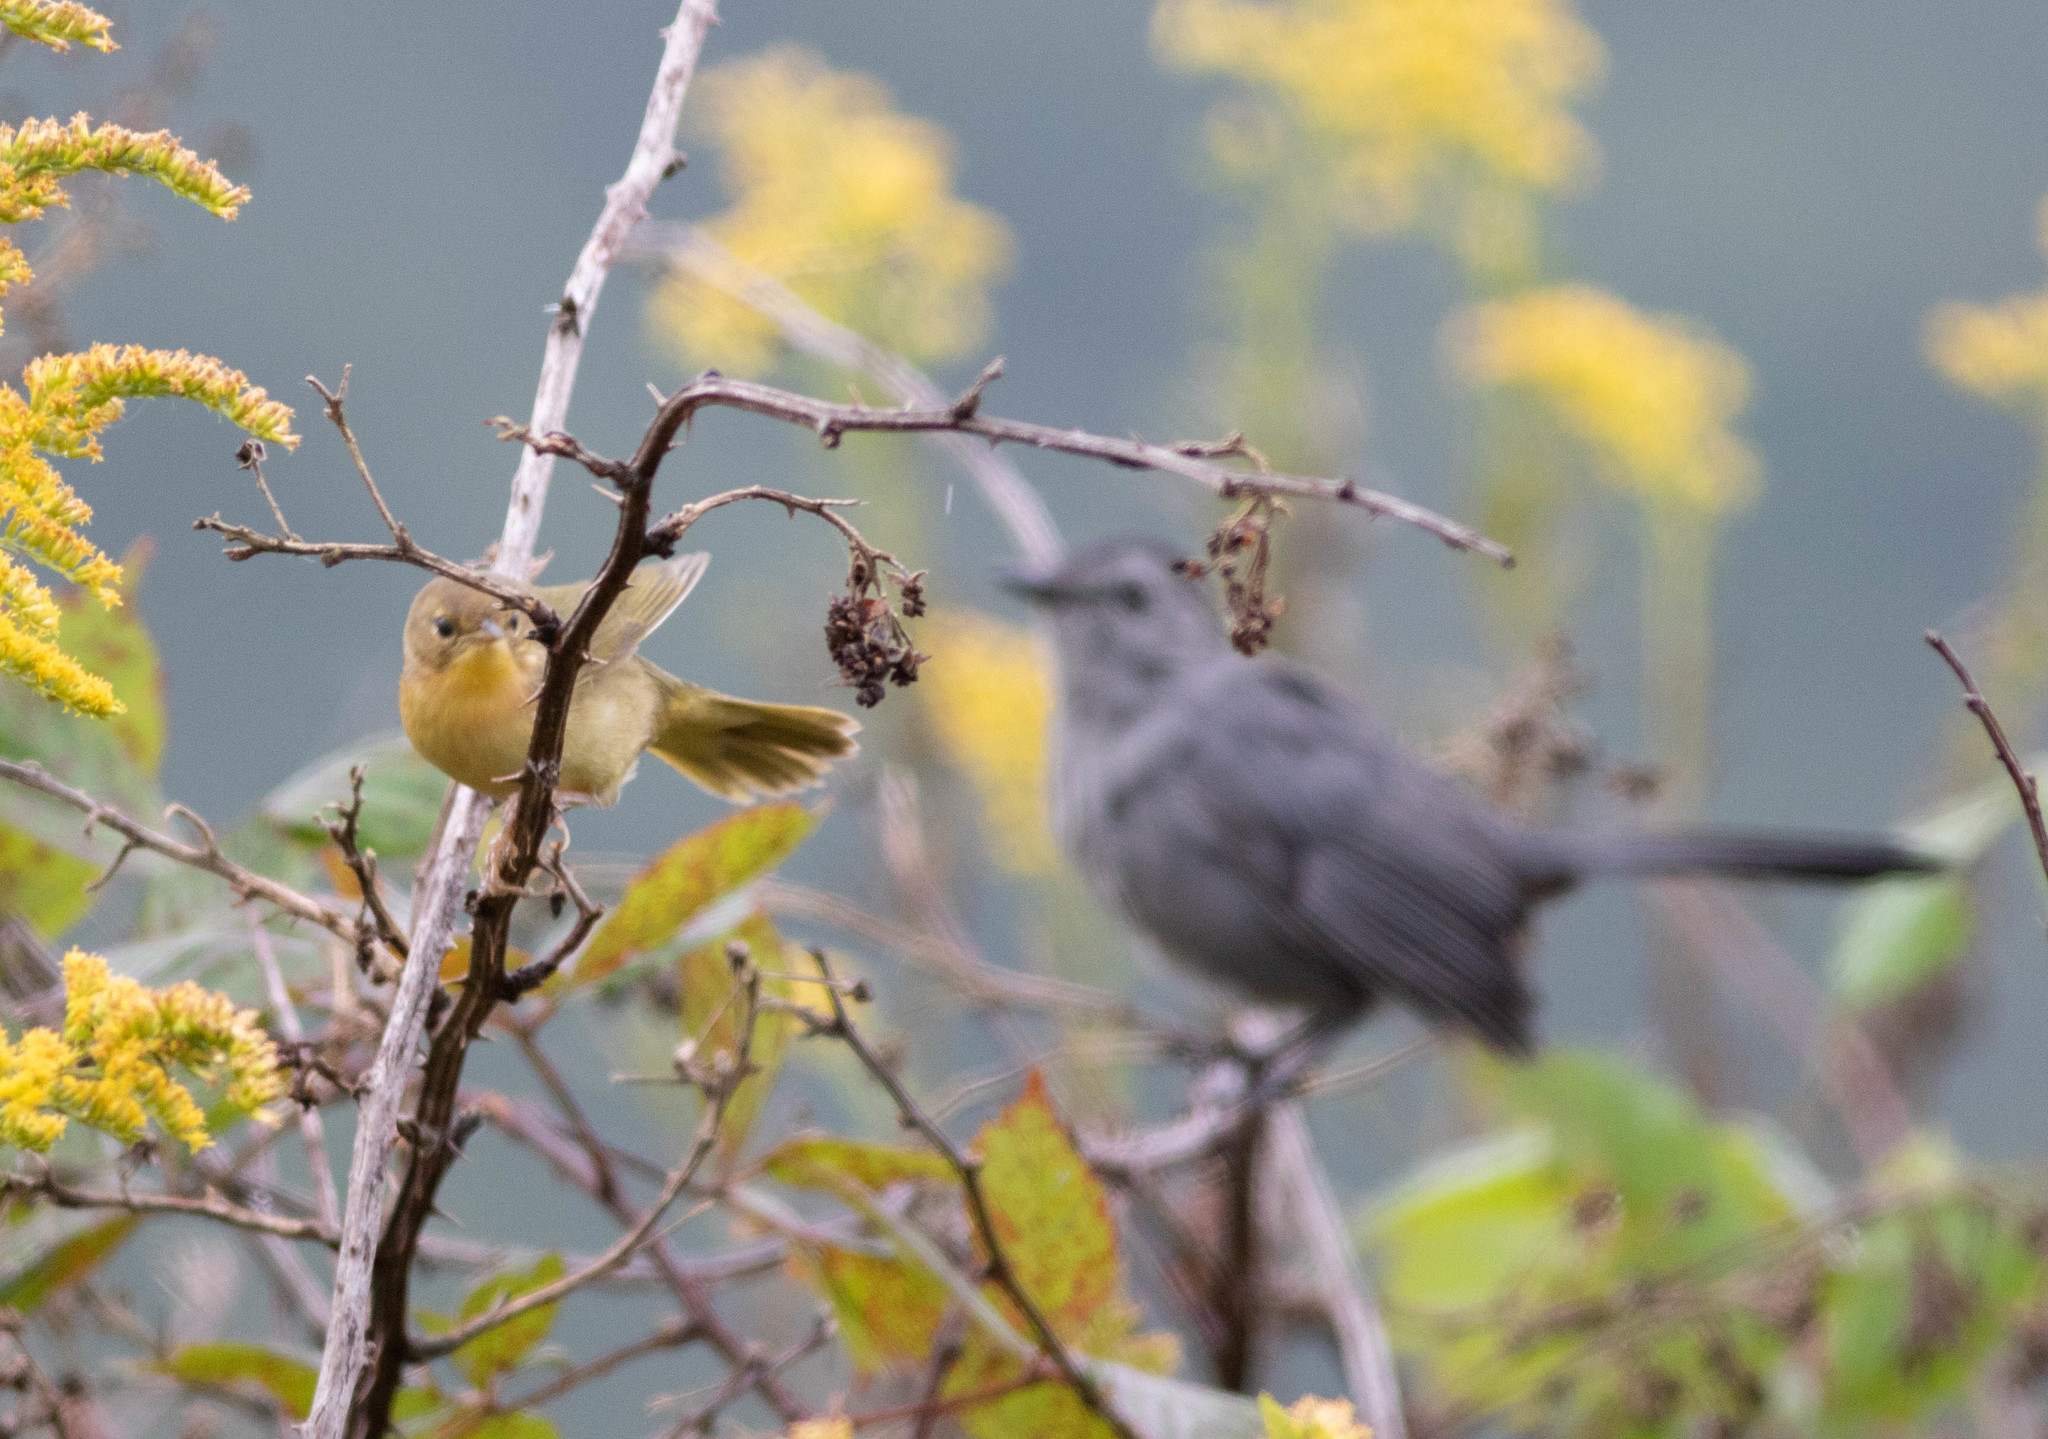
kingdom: Animalia
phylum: Chordata
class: Aves
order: Passeriformes
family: Parulidae
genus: Geothlypis
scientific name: Geothlypis trichas
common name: Common yellowthroat
